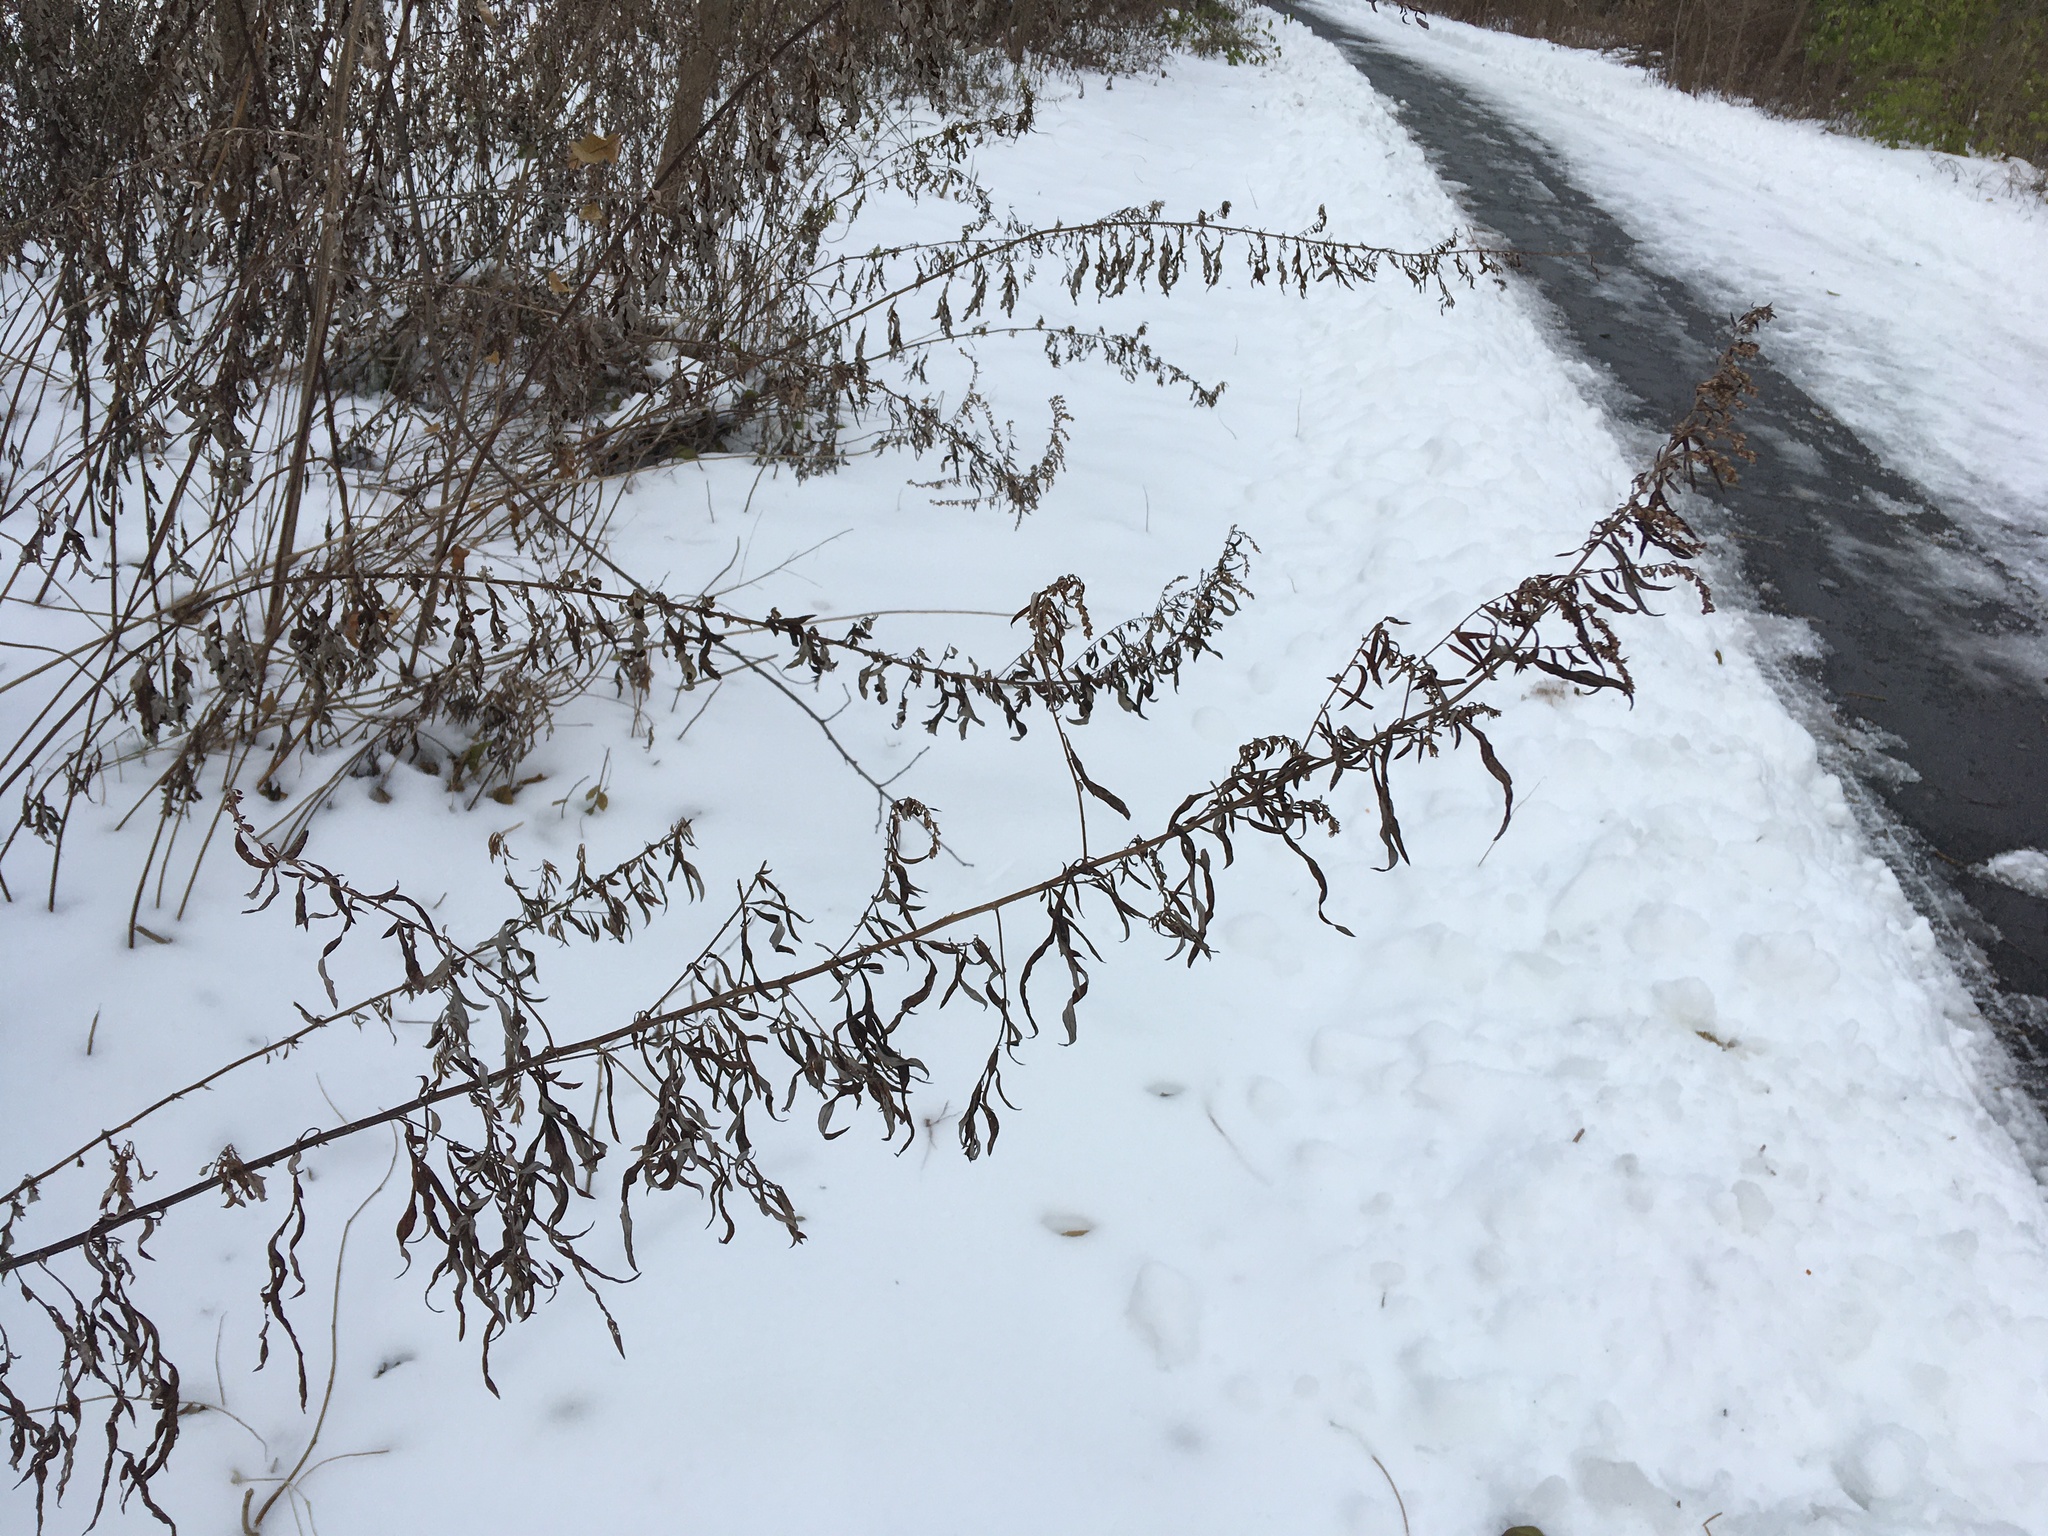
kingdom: Plantae
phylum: Tracheophyta
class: Magnoliopsida
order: Asterales
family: Asteraceae
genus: Artemisia
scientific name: Artemisia vulgaris
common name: Mugwort
